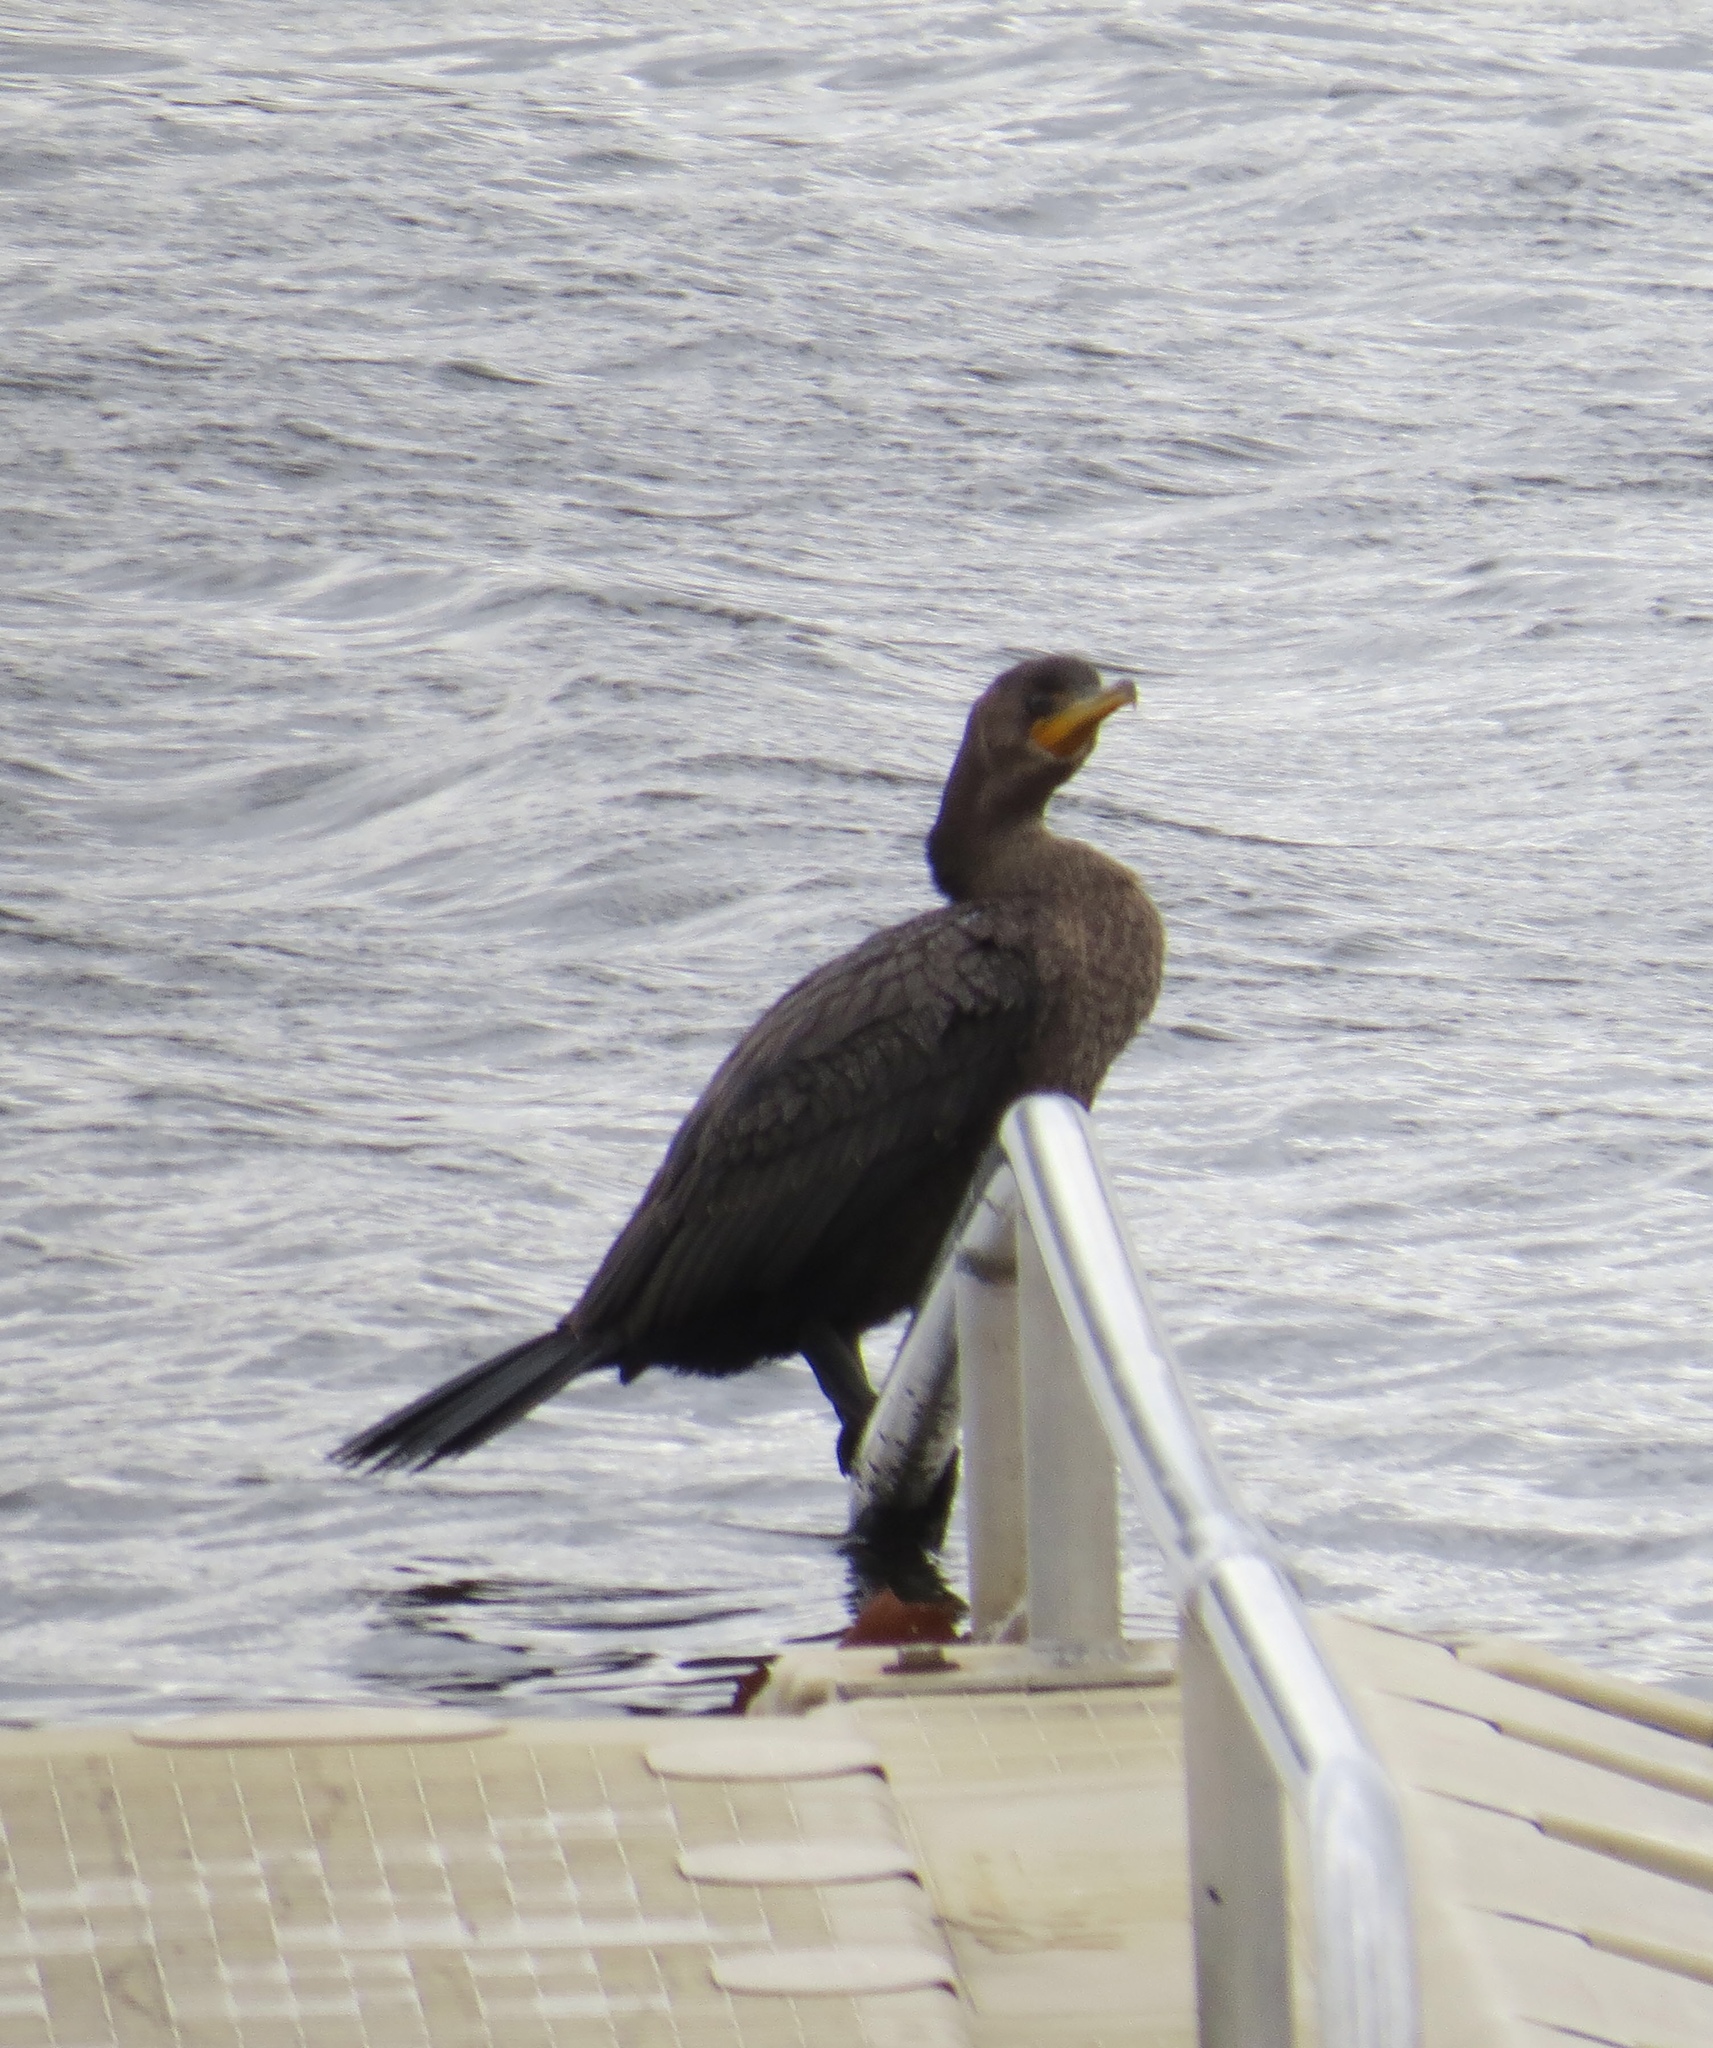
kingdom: Animalia
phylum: Chordata
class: Aves
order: Suliformes
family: Phalacrocoracidae
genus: Phalacrocorax
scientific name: Phalacrocorax auritus
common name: Double-crested cormorant
